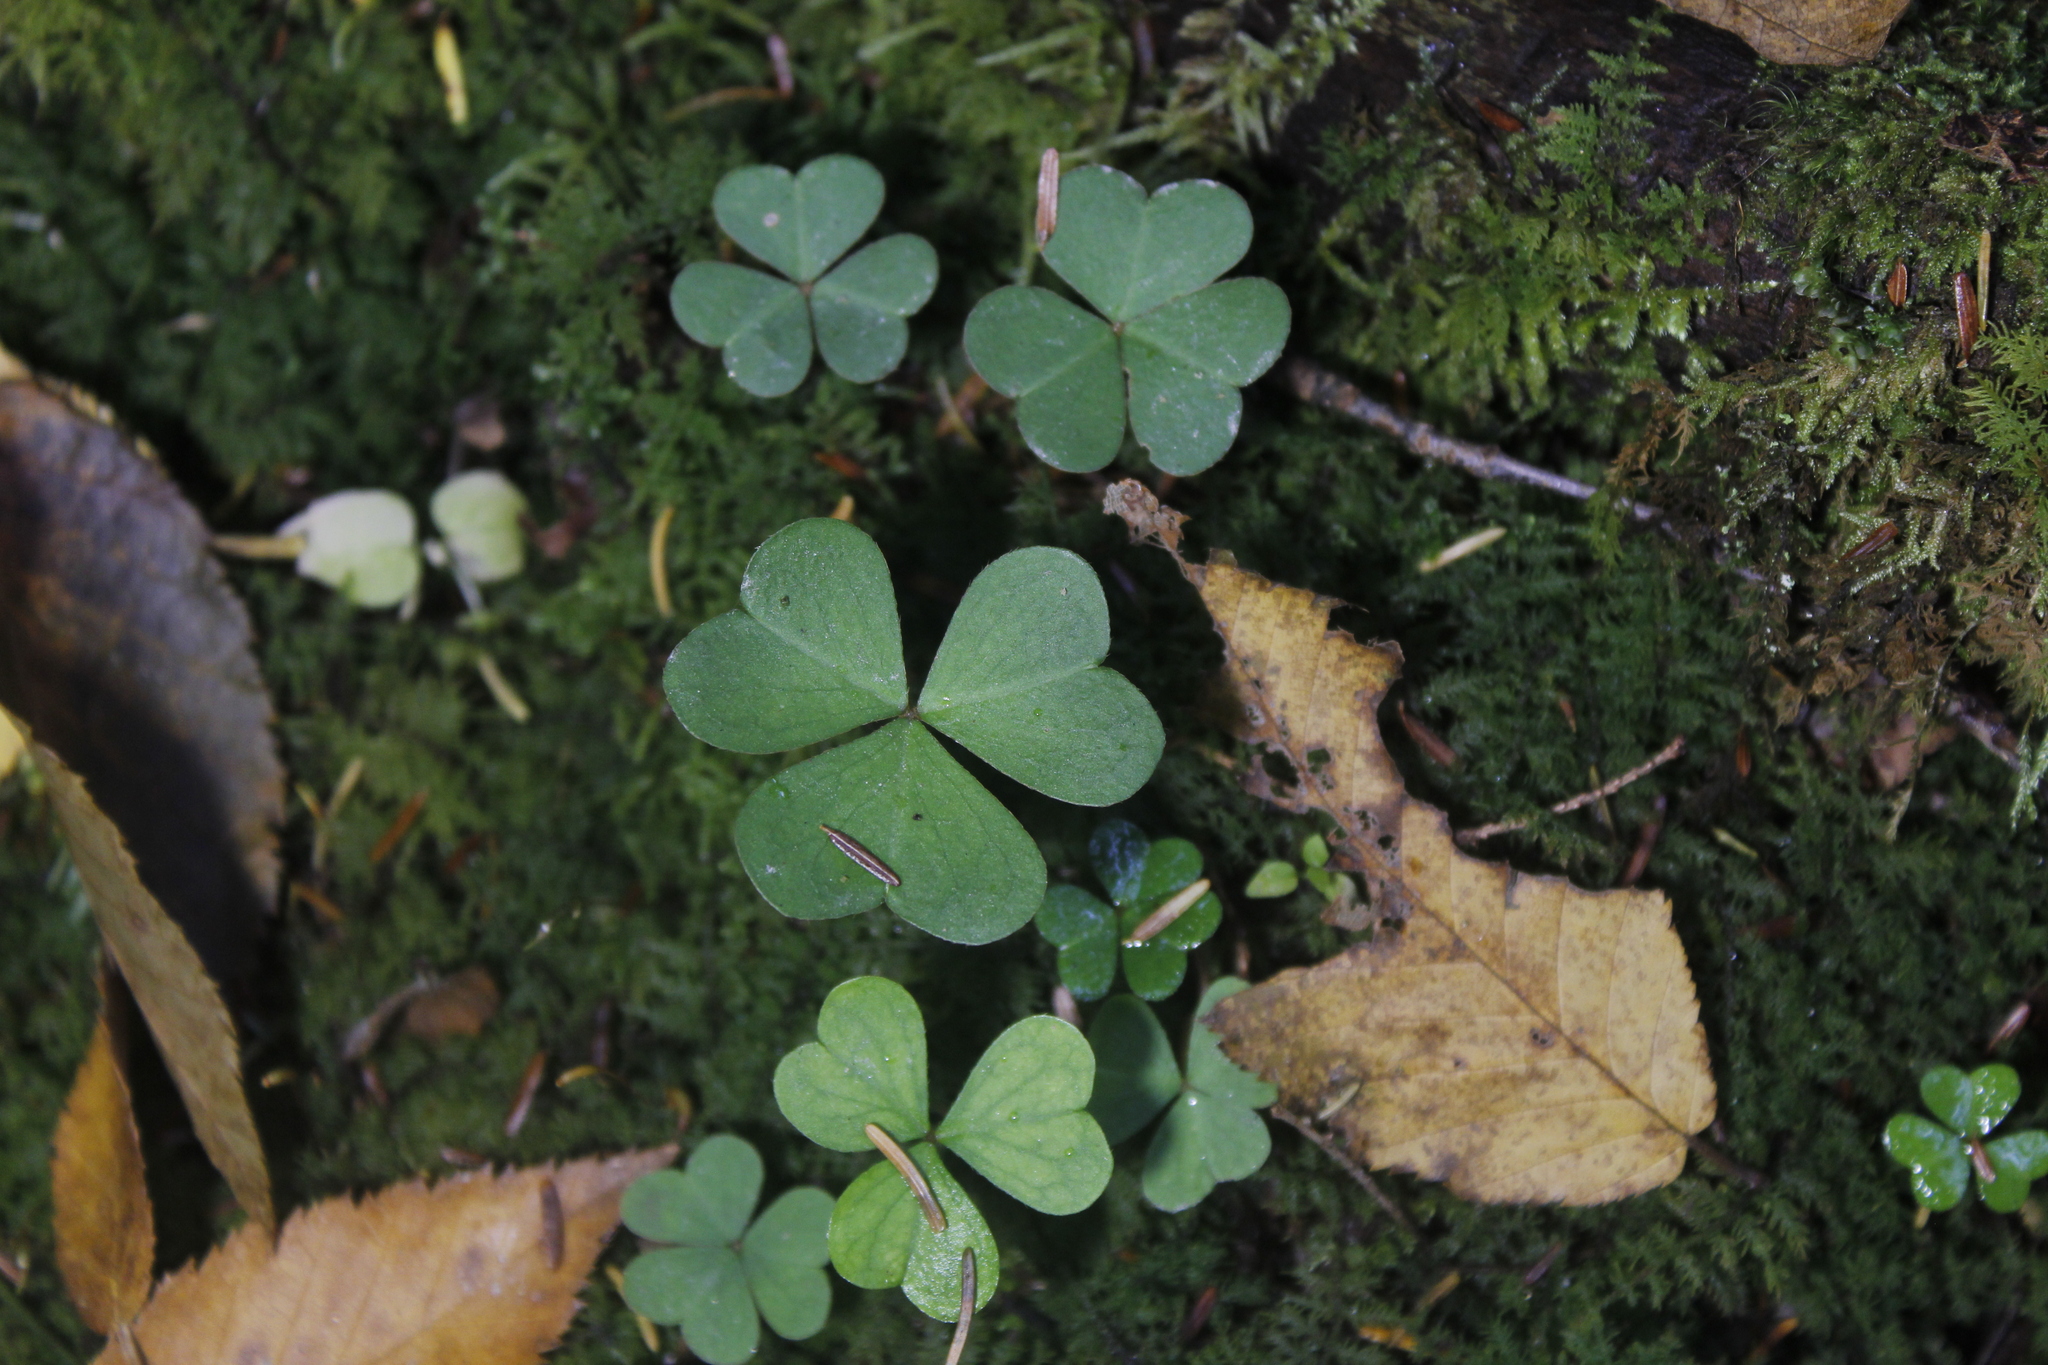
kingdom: Plantae
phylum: Tracheophyta
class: Magnoliopsida
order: Oxalidales
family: Oxalidaceae
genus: Oxalis
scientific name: Oxalis montana
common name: American wood-sorrel
